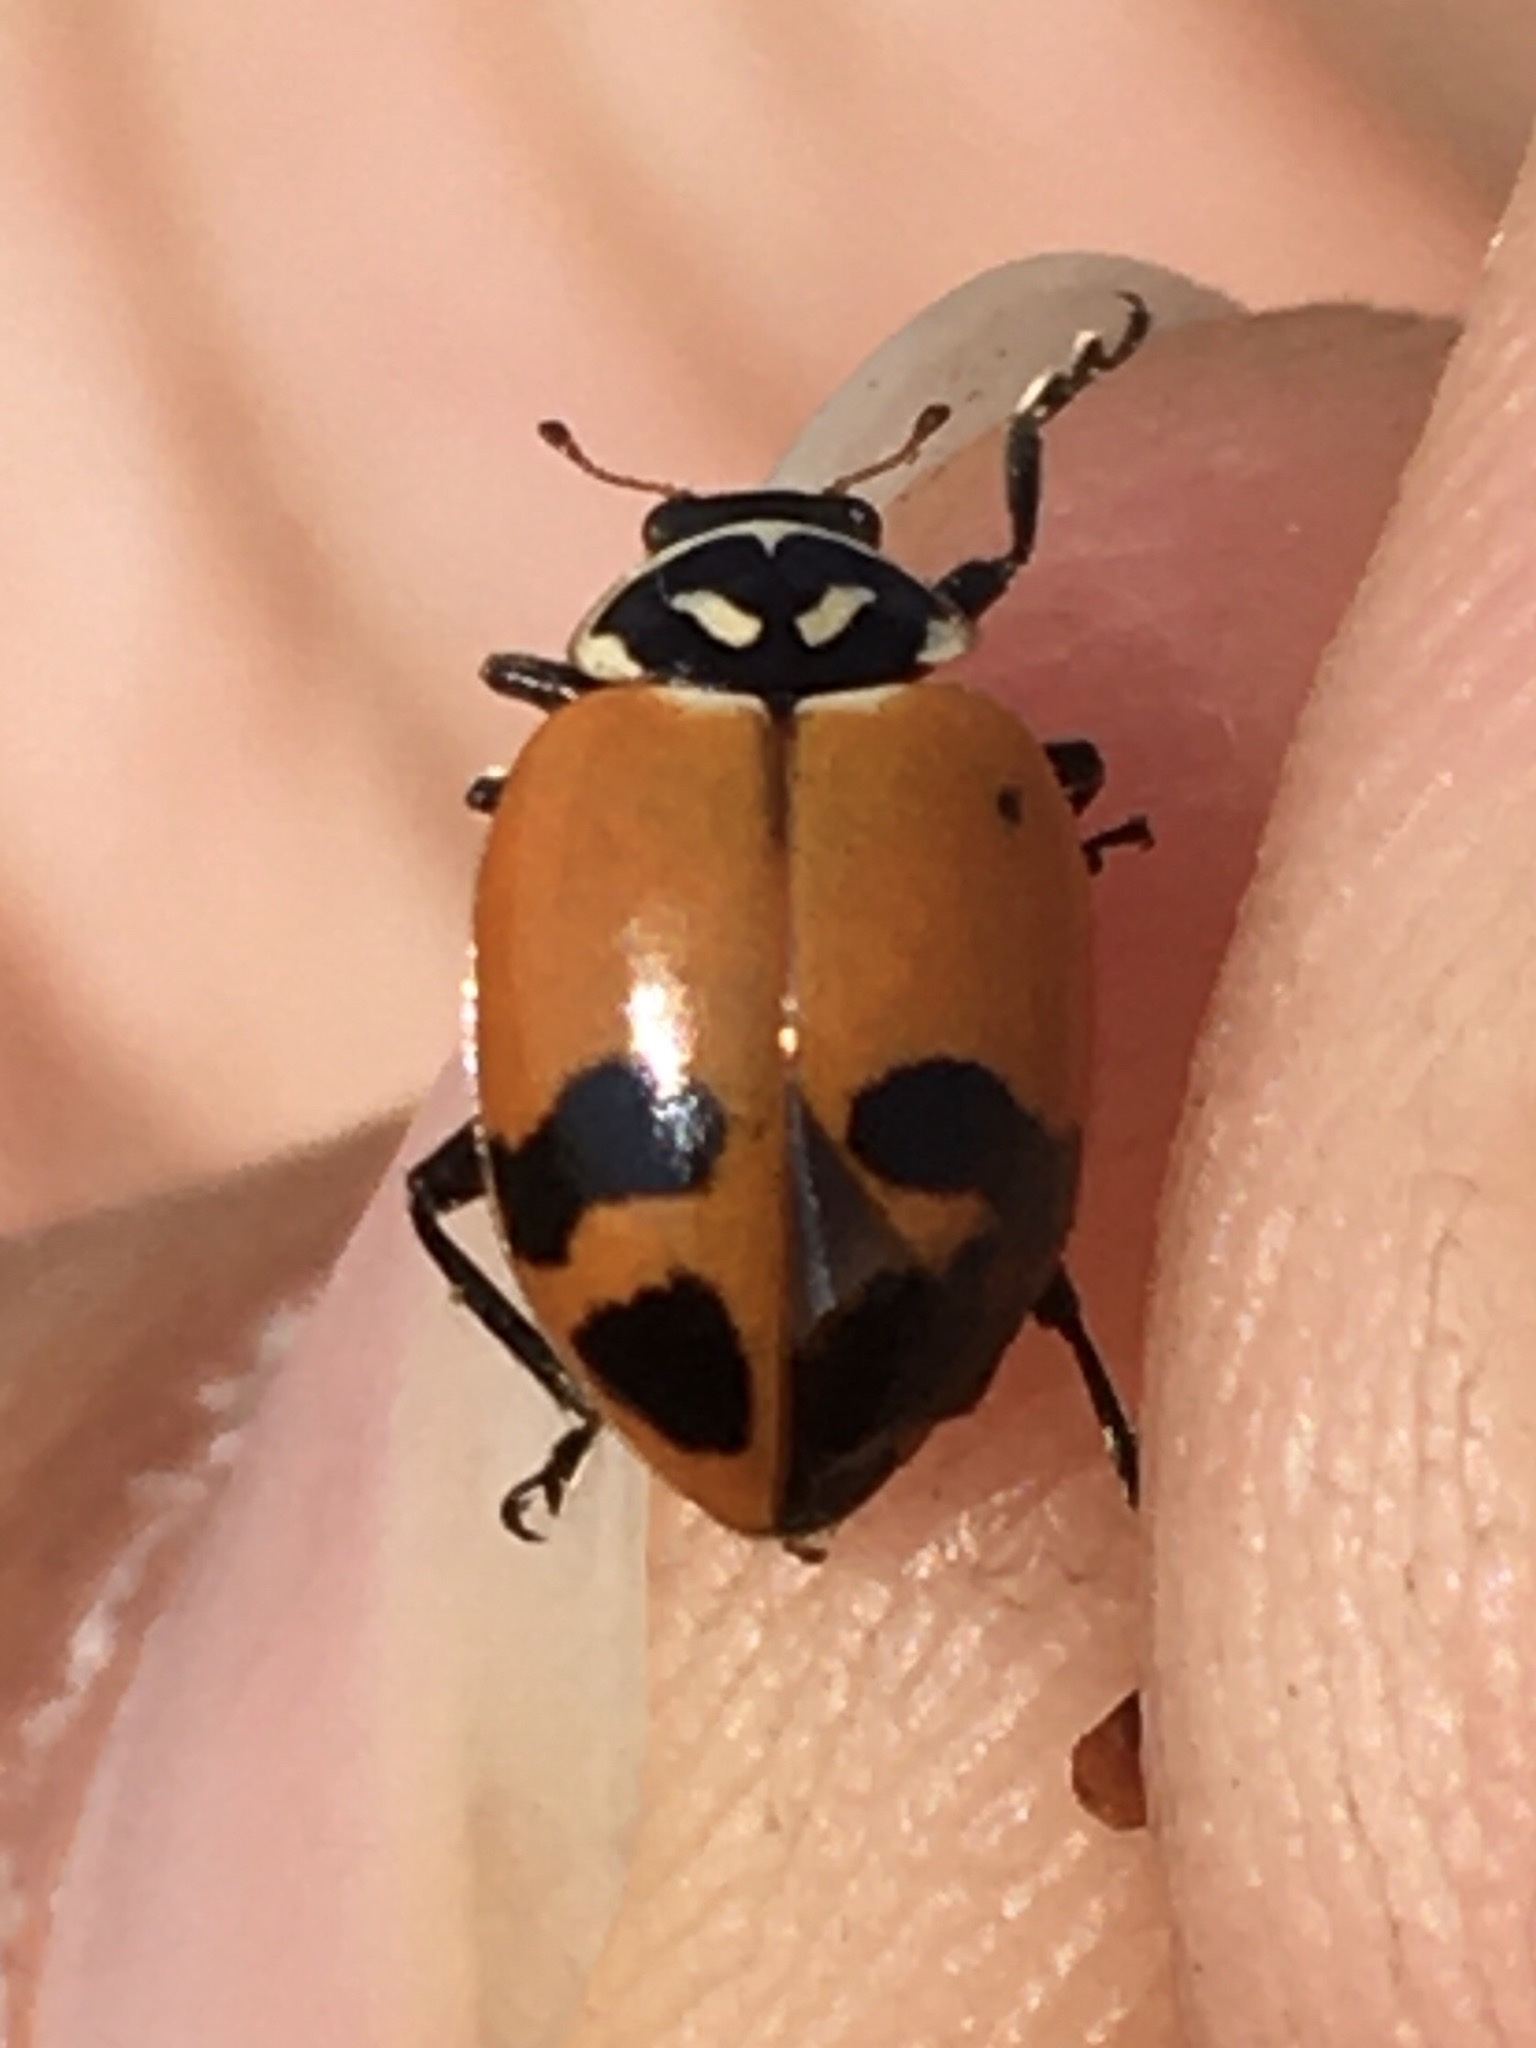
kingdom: Animalia
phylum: Arthropoda
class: Insecta
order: Coleoptera
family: Coccinellidae
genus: Hippodamia
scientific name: Hippodamia glacialis
